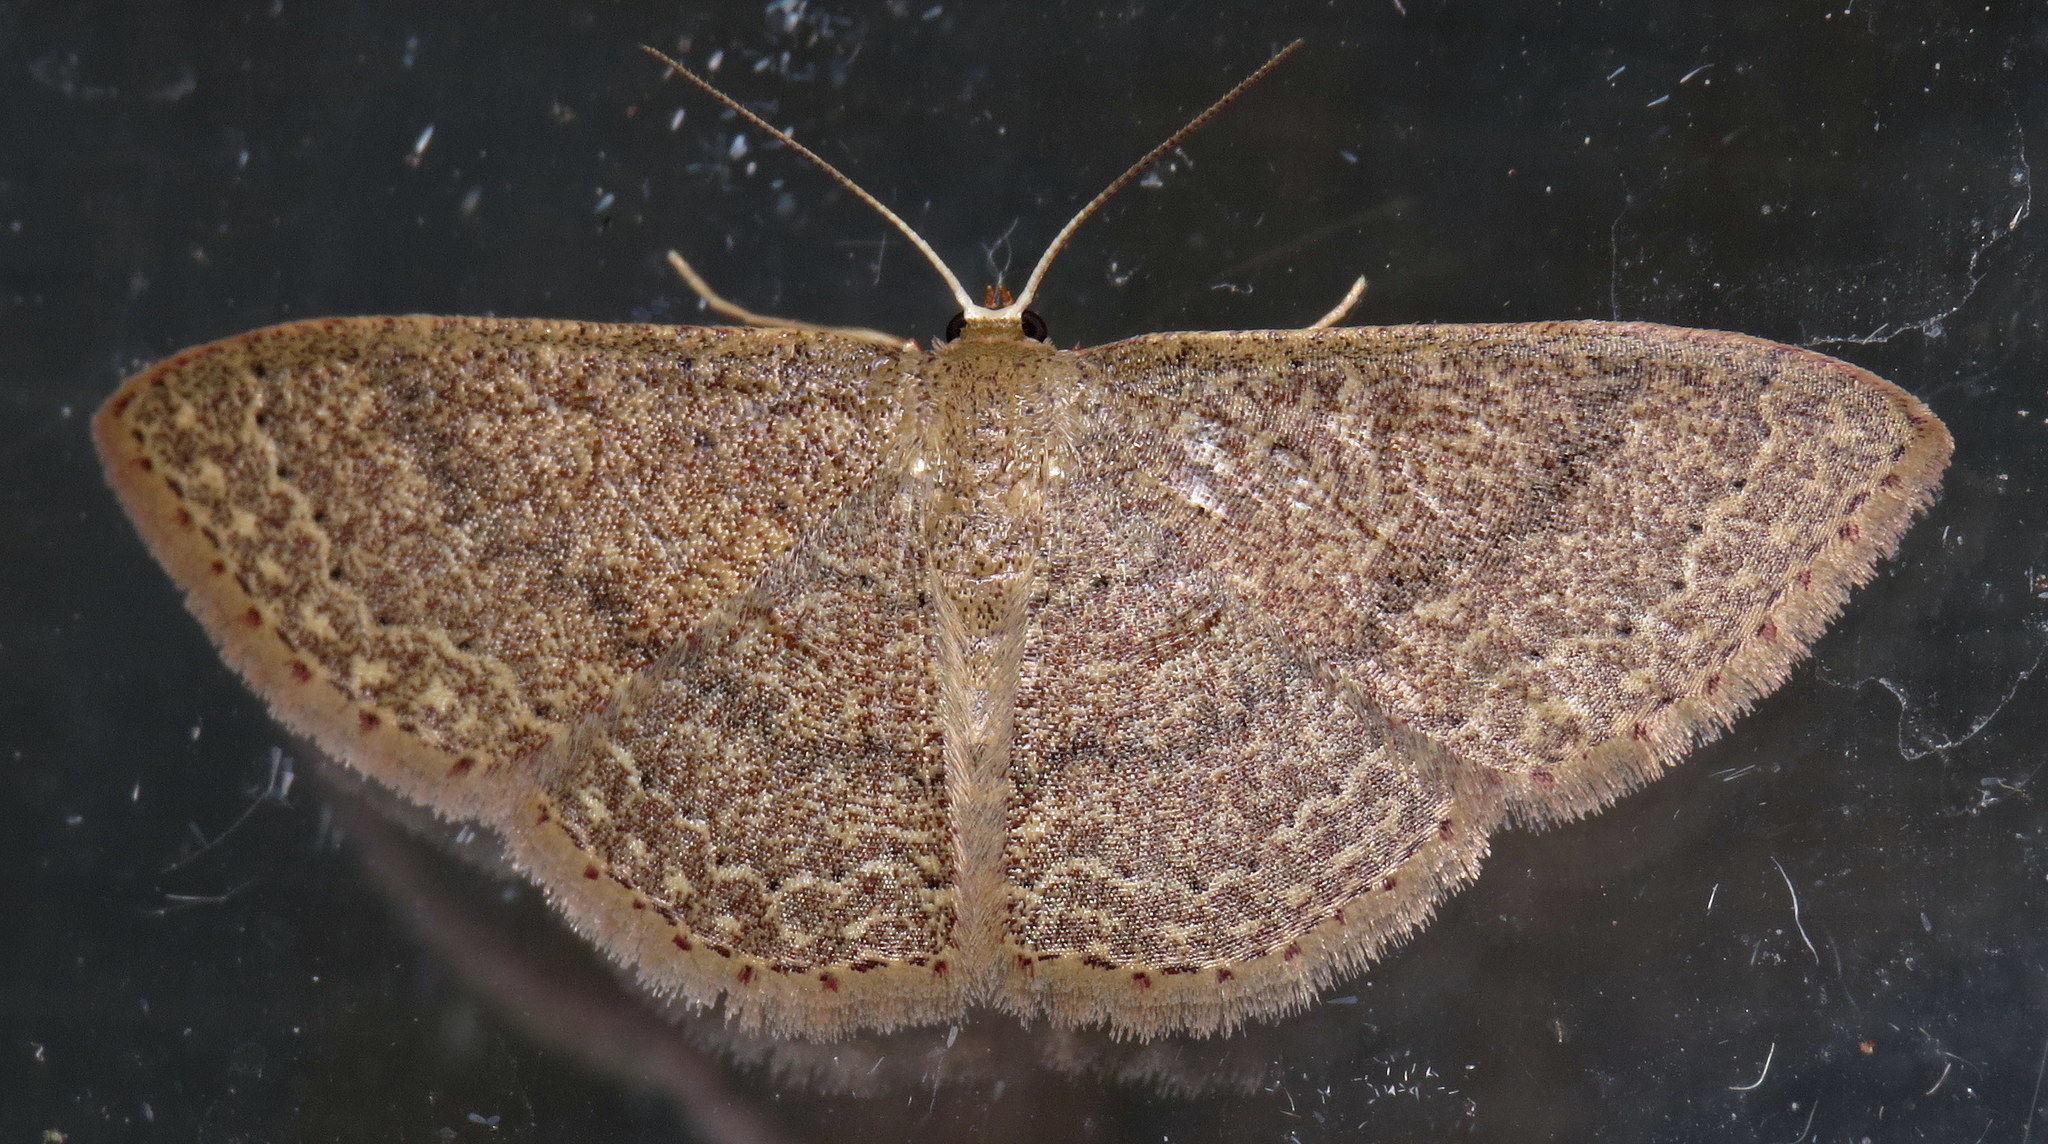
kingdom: Animalia
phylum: Arthropoda
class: Insecta
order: Lepidoptera
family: Geometridae
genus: Pleuroprucha
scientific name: Pleuroprucha insulsaria
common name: Common tan wave
